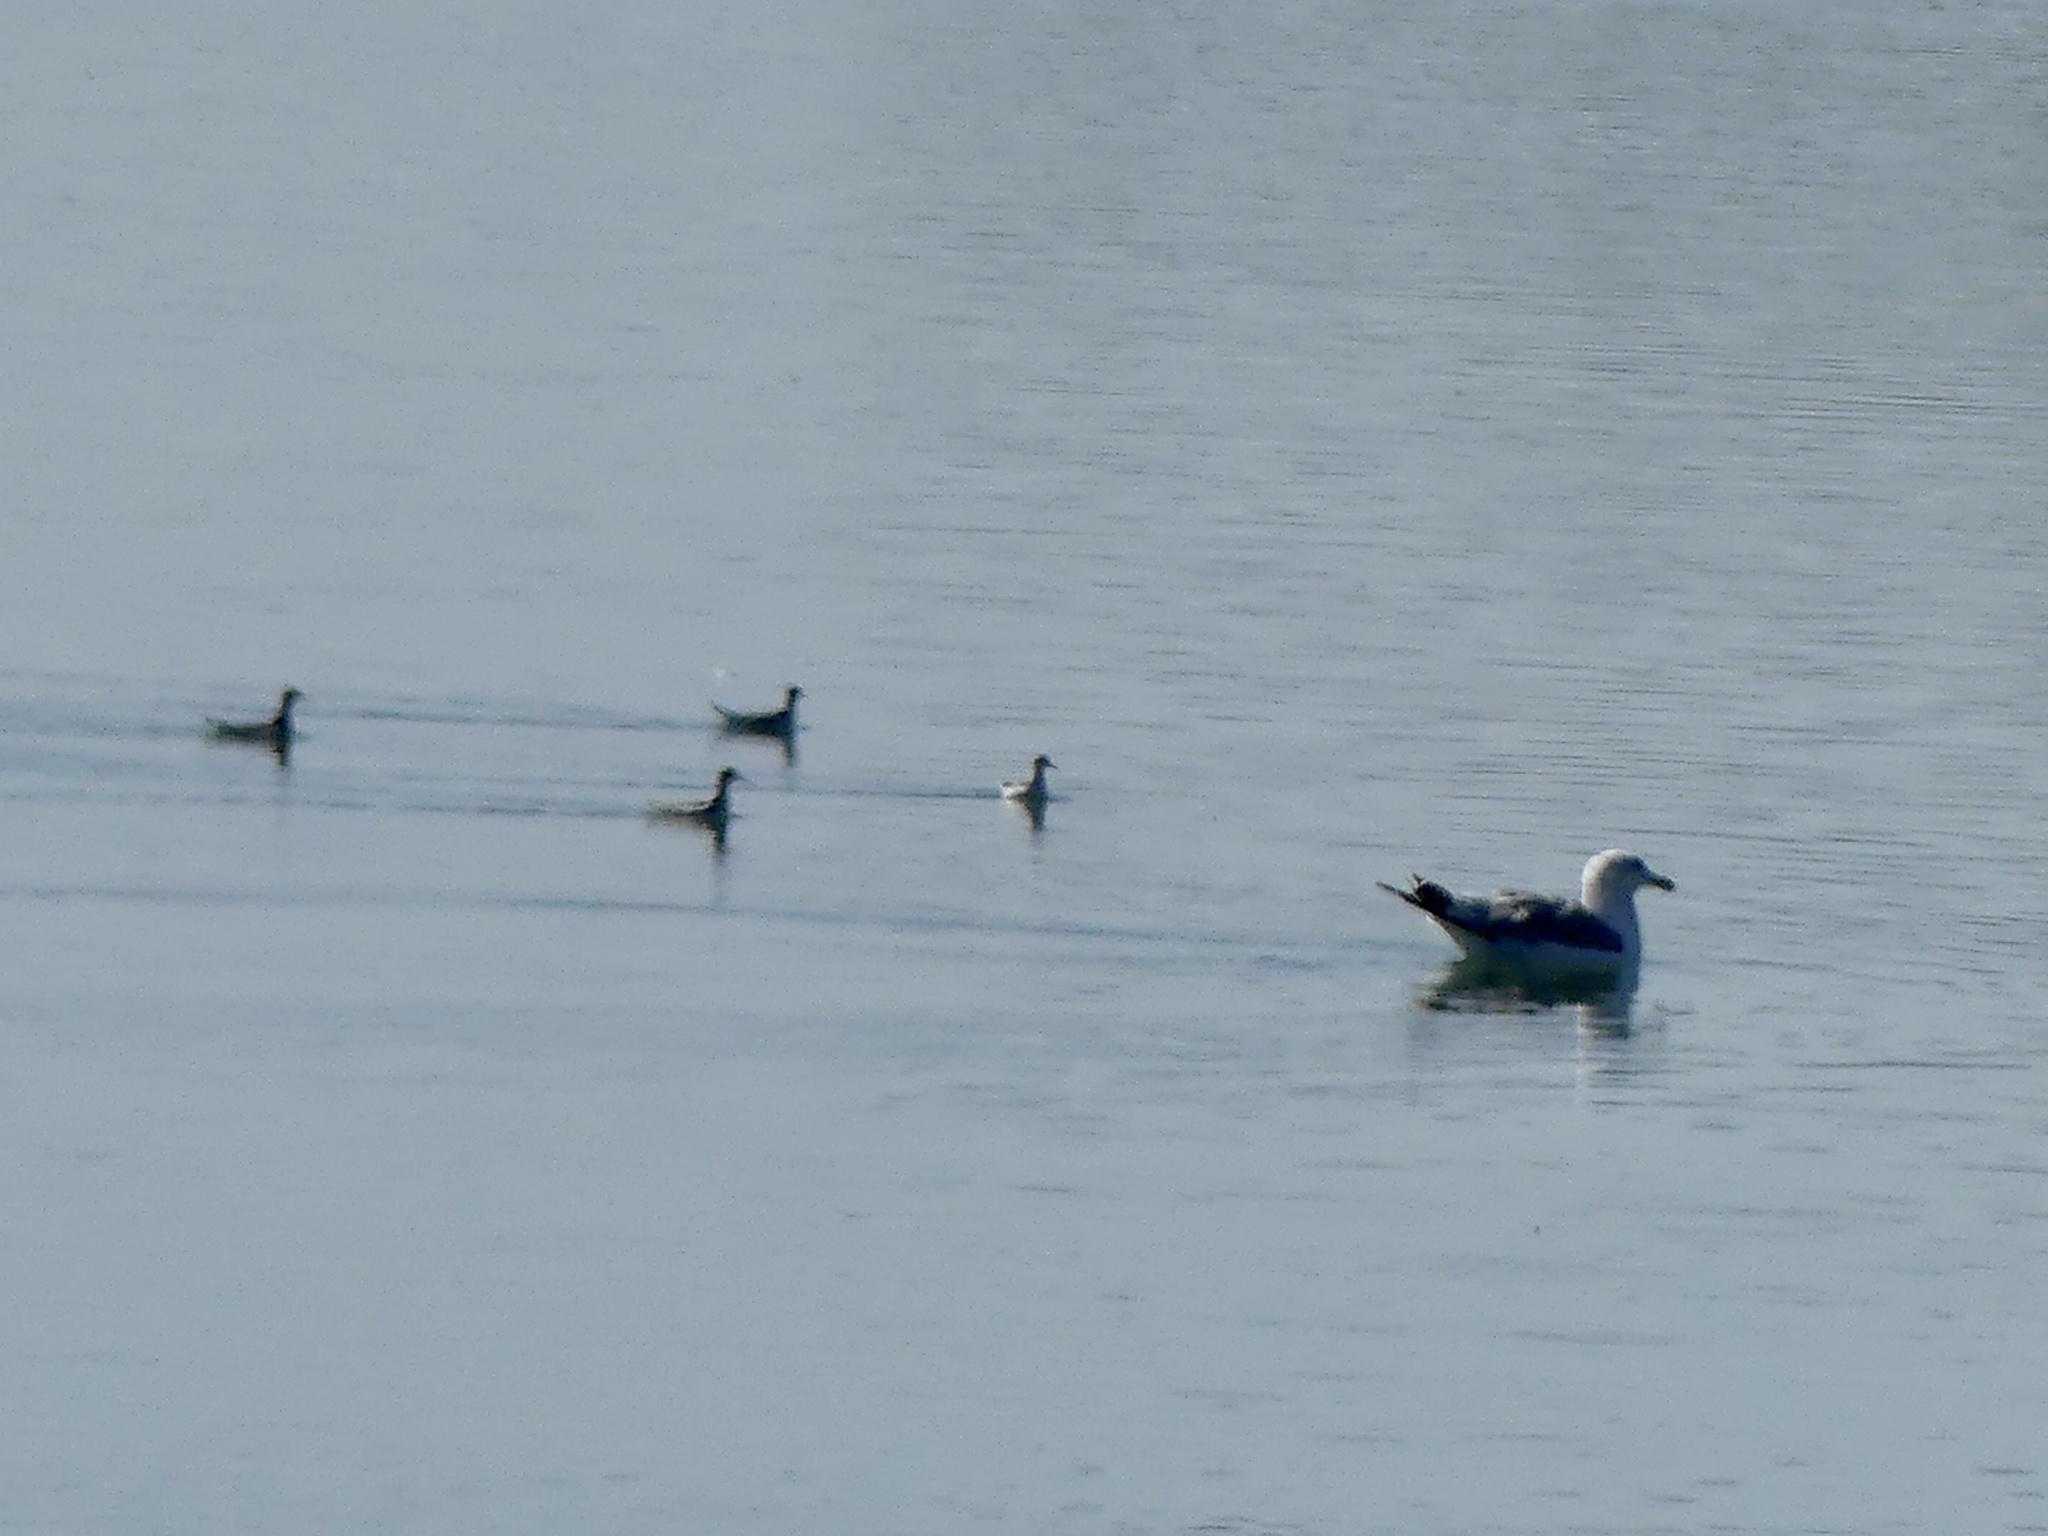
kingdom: Animalia
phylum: Chordata
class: Aves
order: Charadriiformes
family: Scolopacidae
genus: Phalaropus
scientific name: Phalaropus
